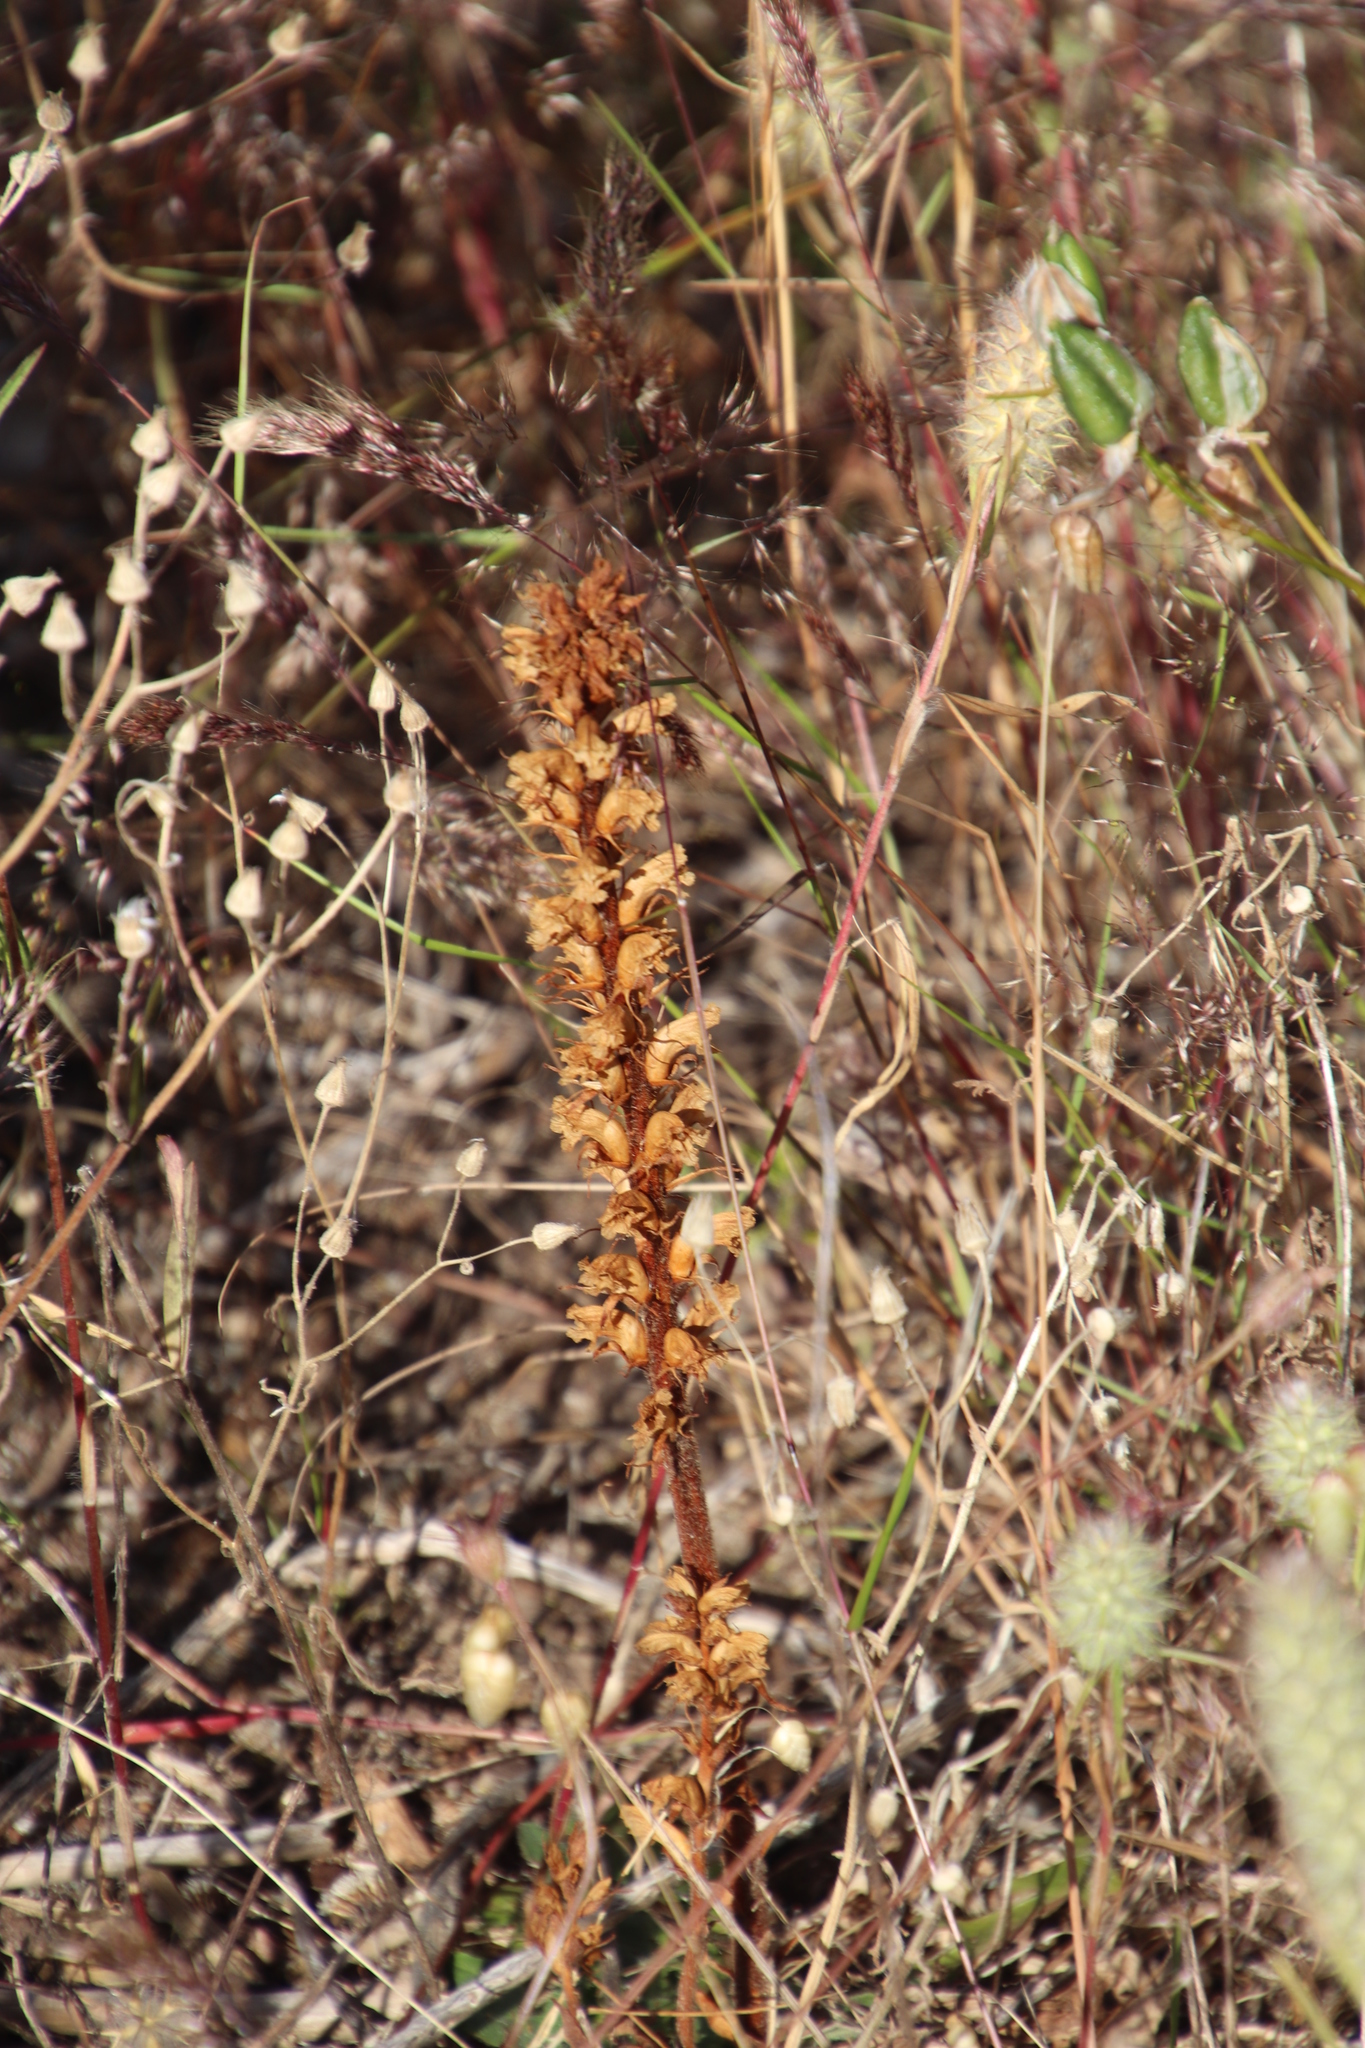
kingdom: Plantae
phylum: Tracheophyta
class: Magnoliopsida
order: Lamiales
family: Orobanchaceae
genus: Orobanche
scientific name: Orobanche minor
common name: Common broomrape
